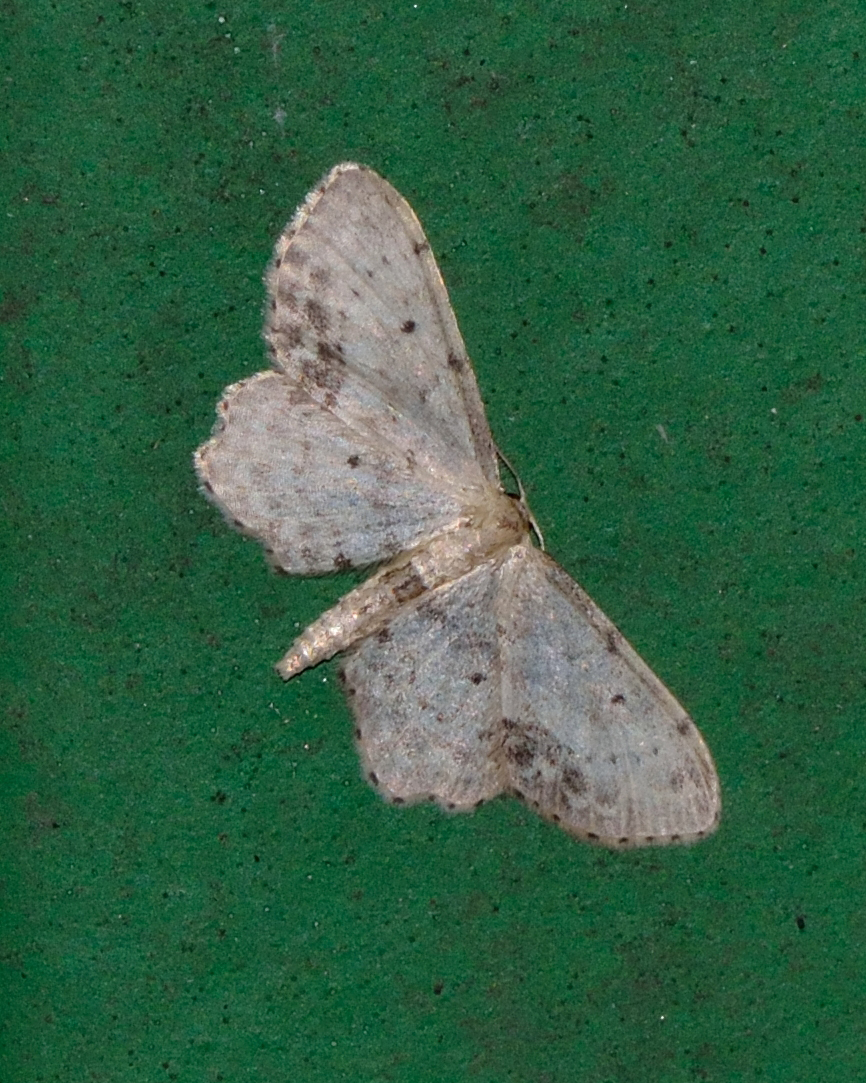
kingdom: Animalia
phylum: Arthropoda
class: Insecta
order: Lepidoptera
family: Geometridae
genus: Idaea
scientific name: Idaea dimidiata
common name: Single-dotted wave
